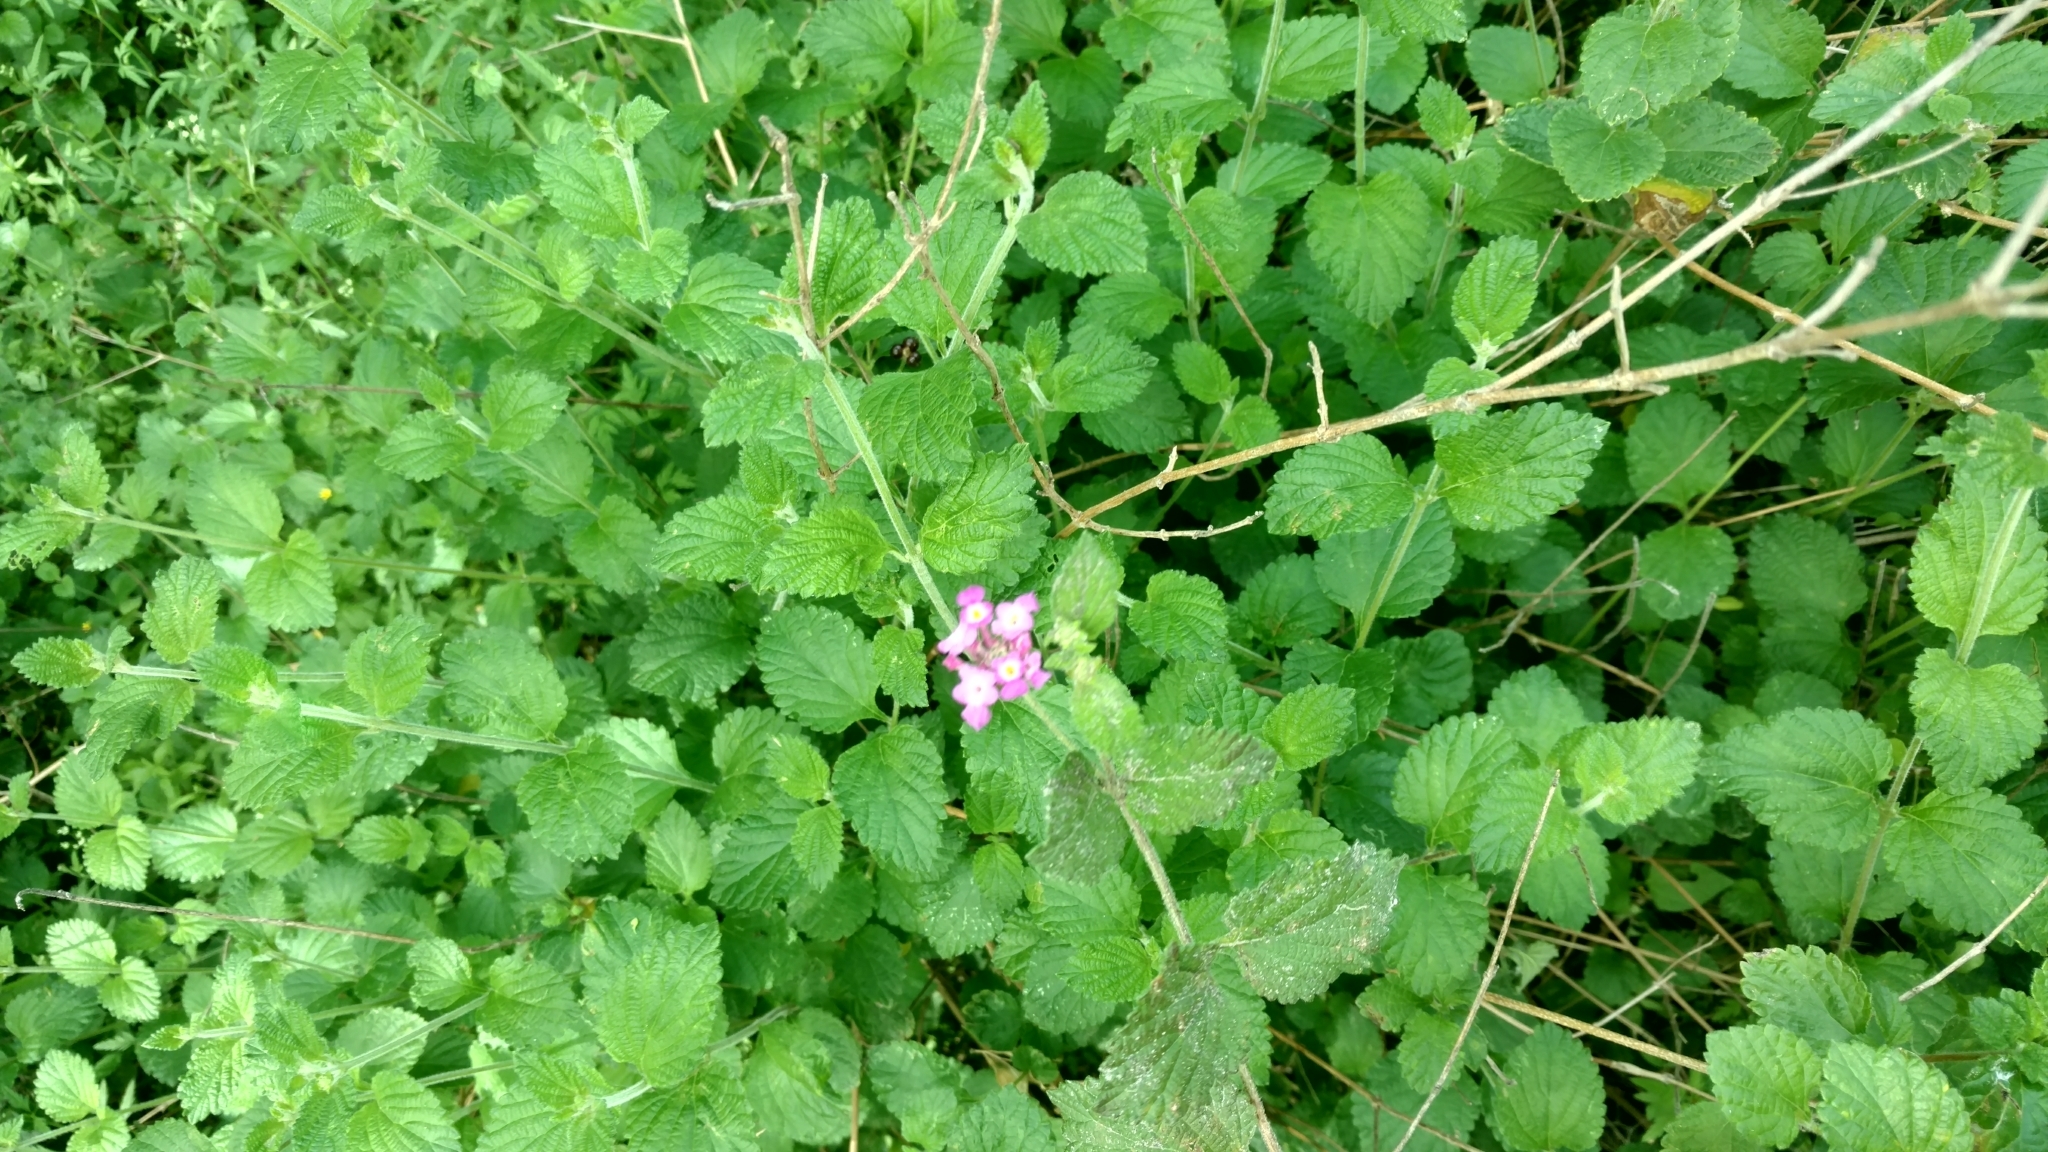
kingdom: Plantae
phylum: Tracheophyta
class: Magnoliopsida
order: Lamiales
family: Verbenaceae
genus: Lantana
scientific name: Lantana montevidensis
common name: Trailing shrubverbena
